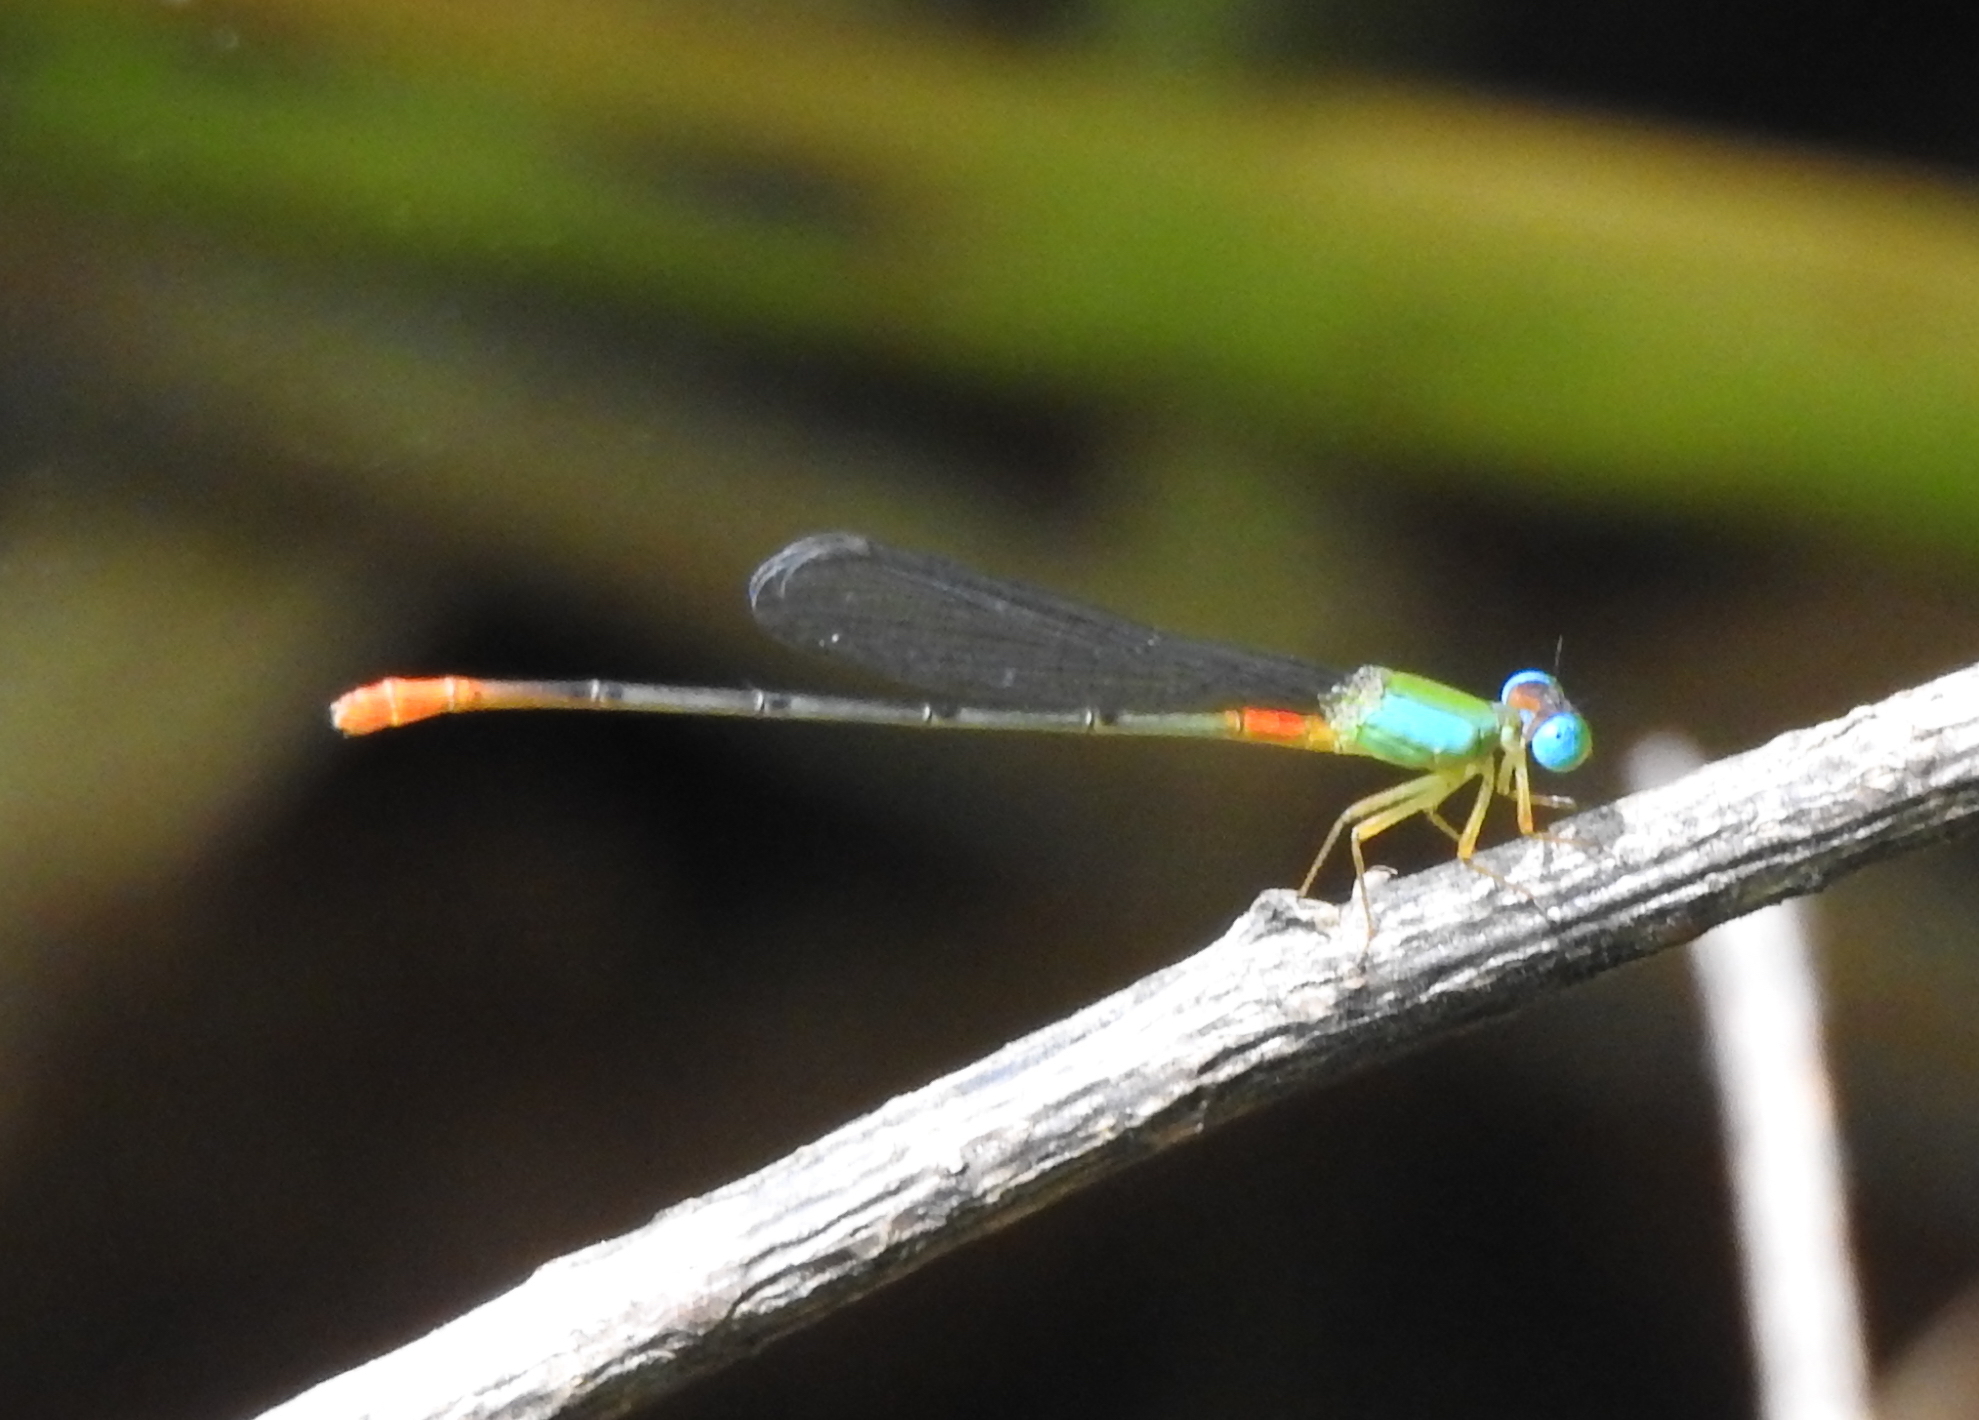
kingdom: Animalia
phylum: Arthropoda
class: Insecta
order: Odonata
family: Coenagrionidae
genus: Ceriagrion
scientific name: Ceriagrion cerinorubellum
